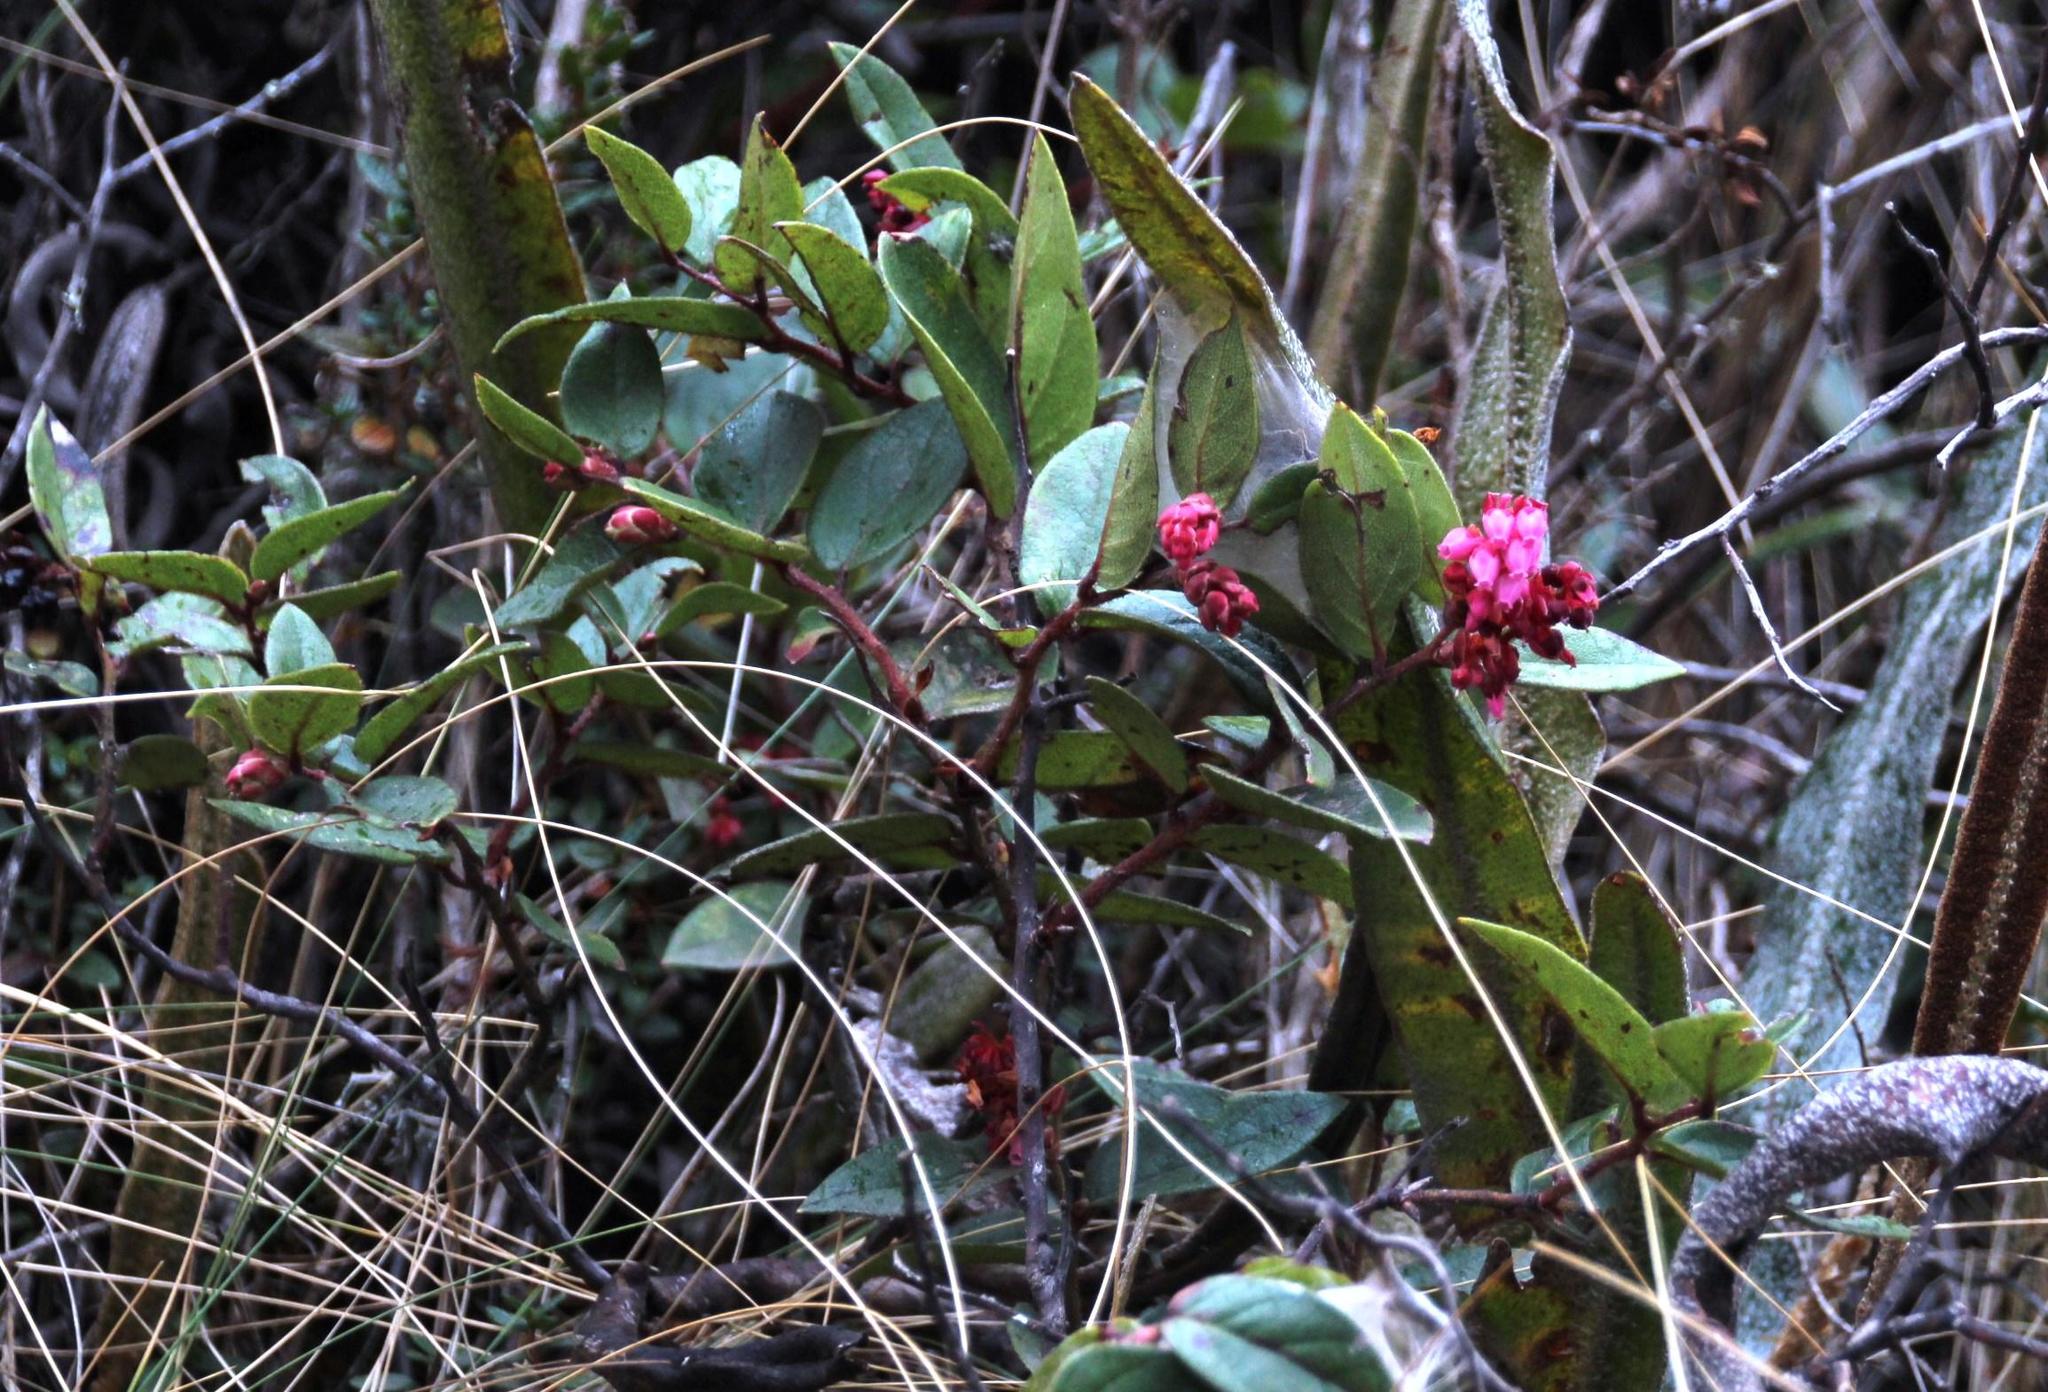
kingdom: Plantae
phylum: Tracheophyta
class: Magnoliopsida
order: Ericales
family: Ericaceae
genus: Gaultheria
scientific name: Gaultheria glomerata
